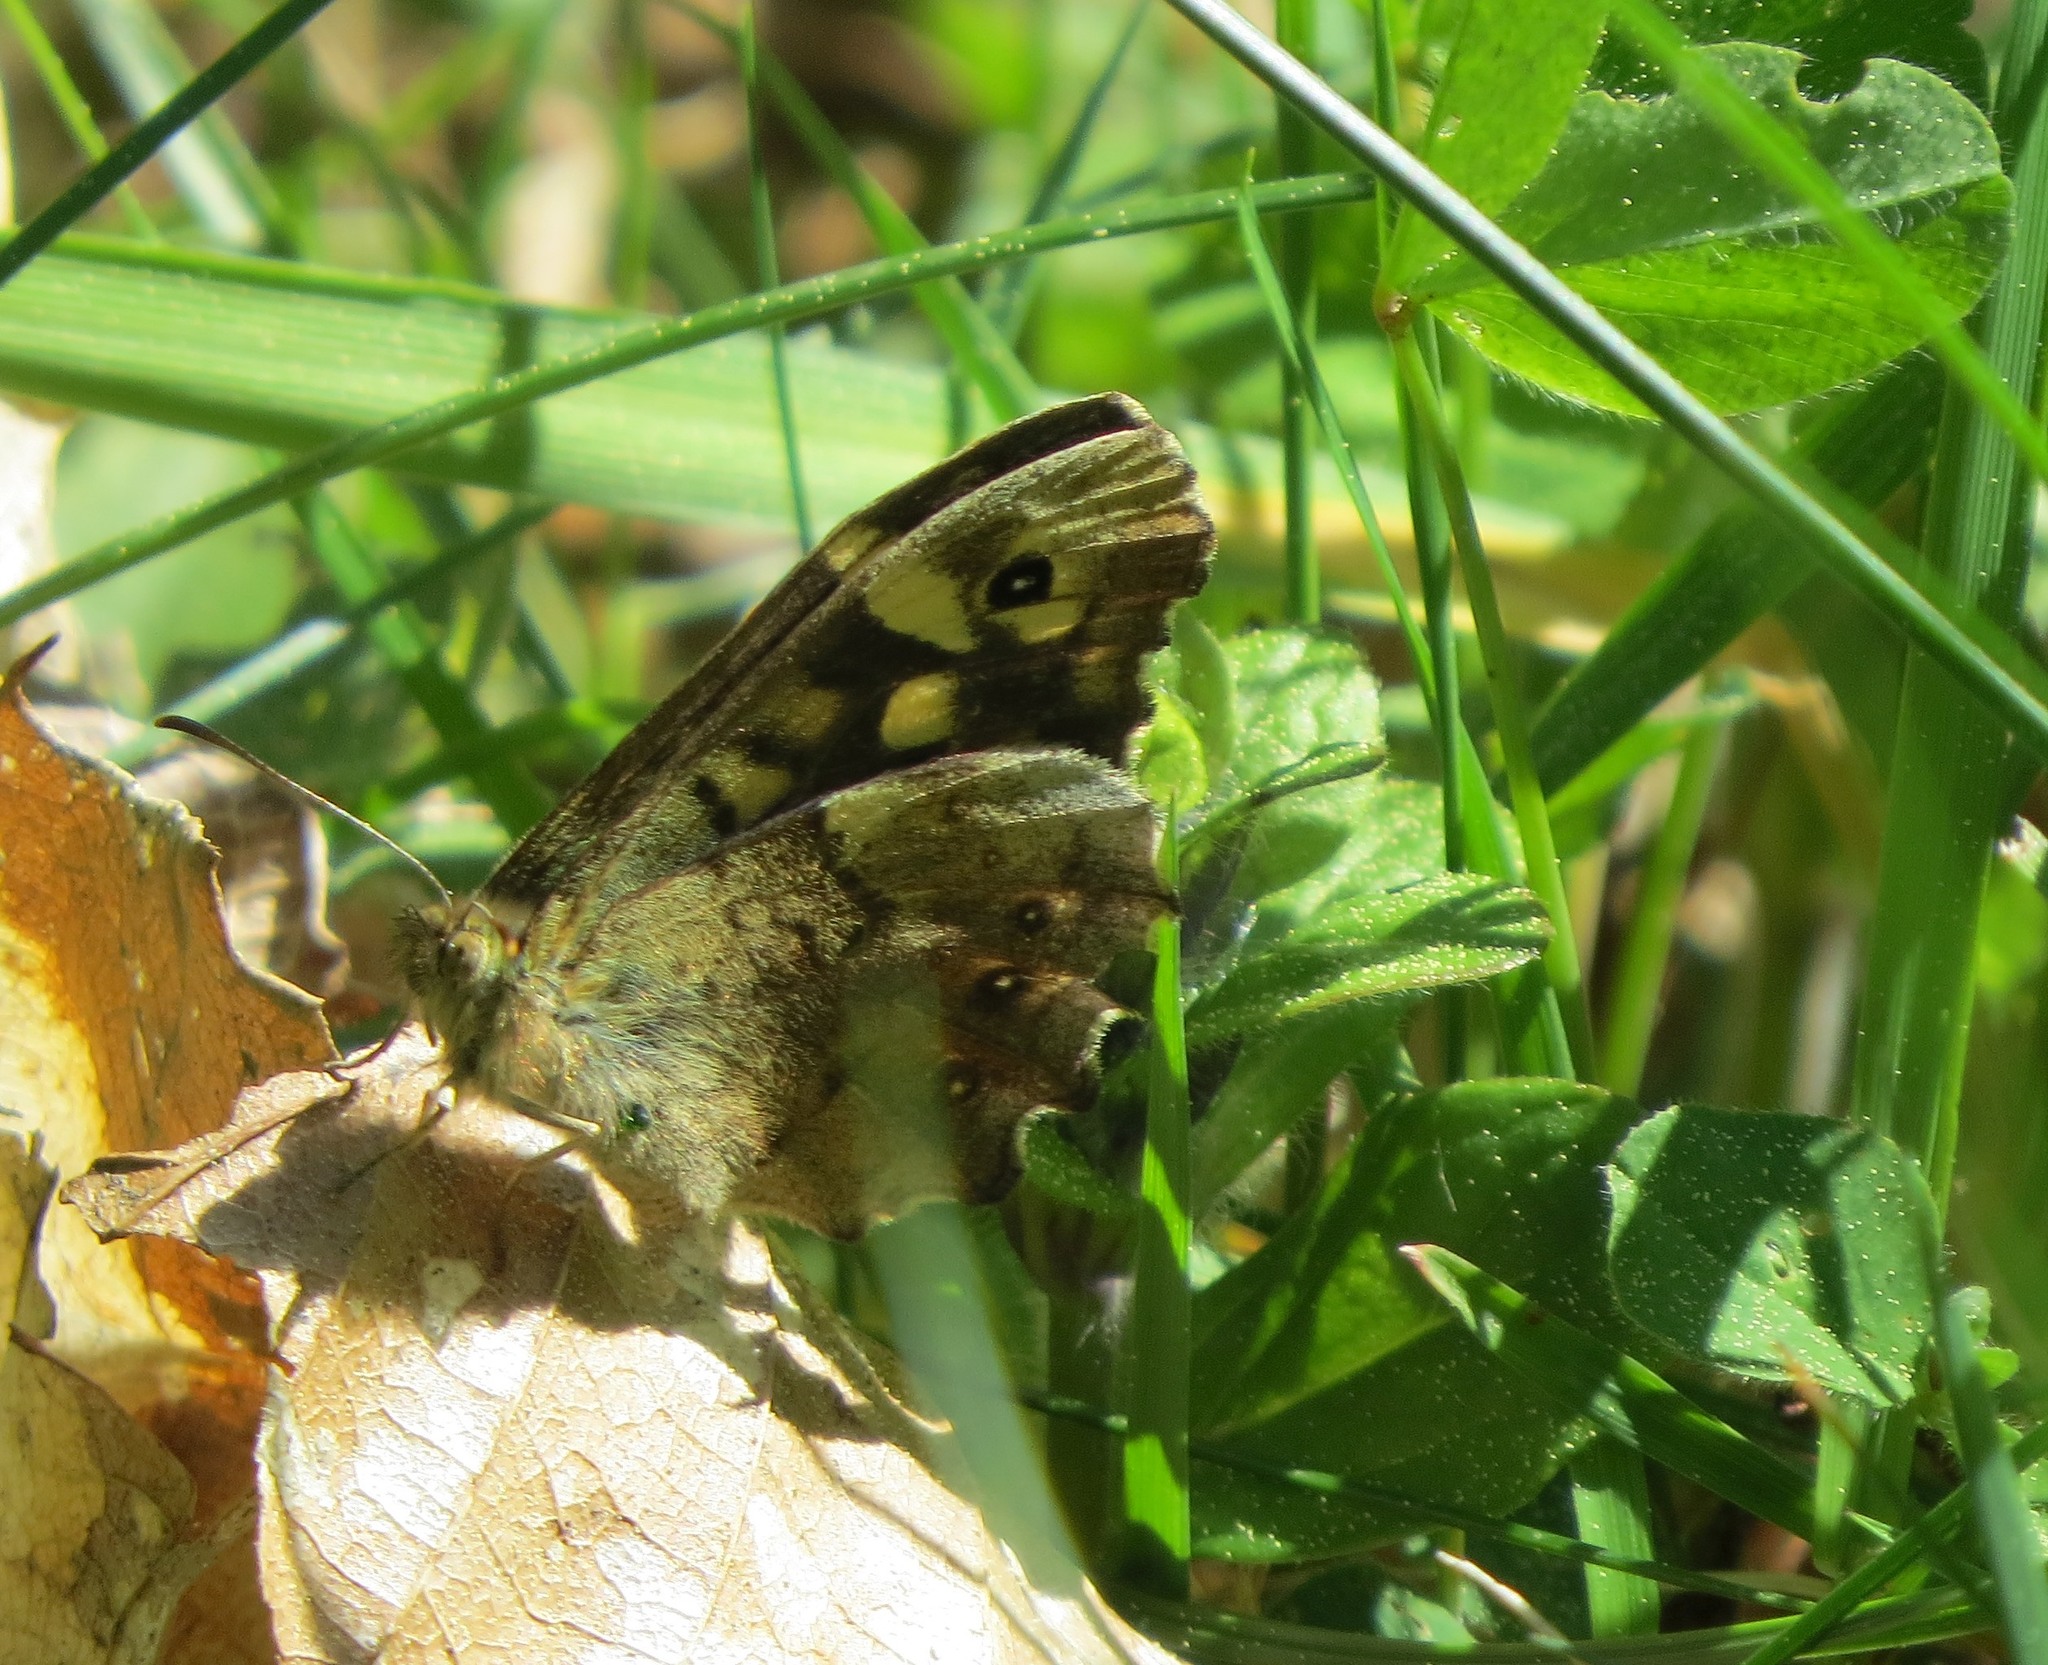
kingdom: Animalia
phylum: Arthropoda
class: Insecta
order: Lepidoptera
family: Nymphalidae
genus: Pararge
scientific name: Pararge aegeria
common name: Speckled wood
